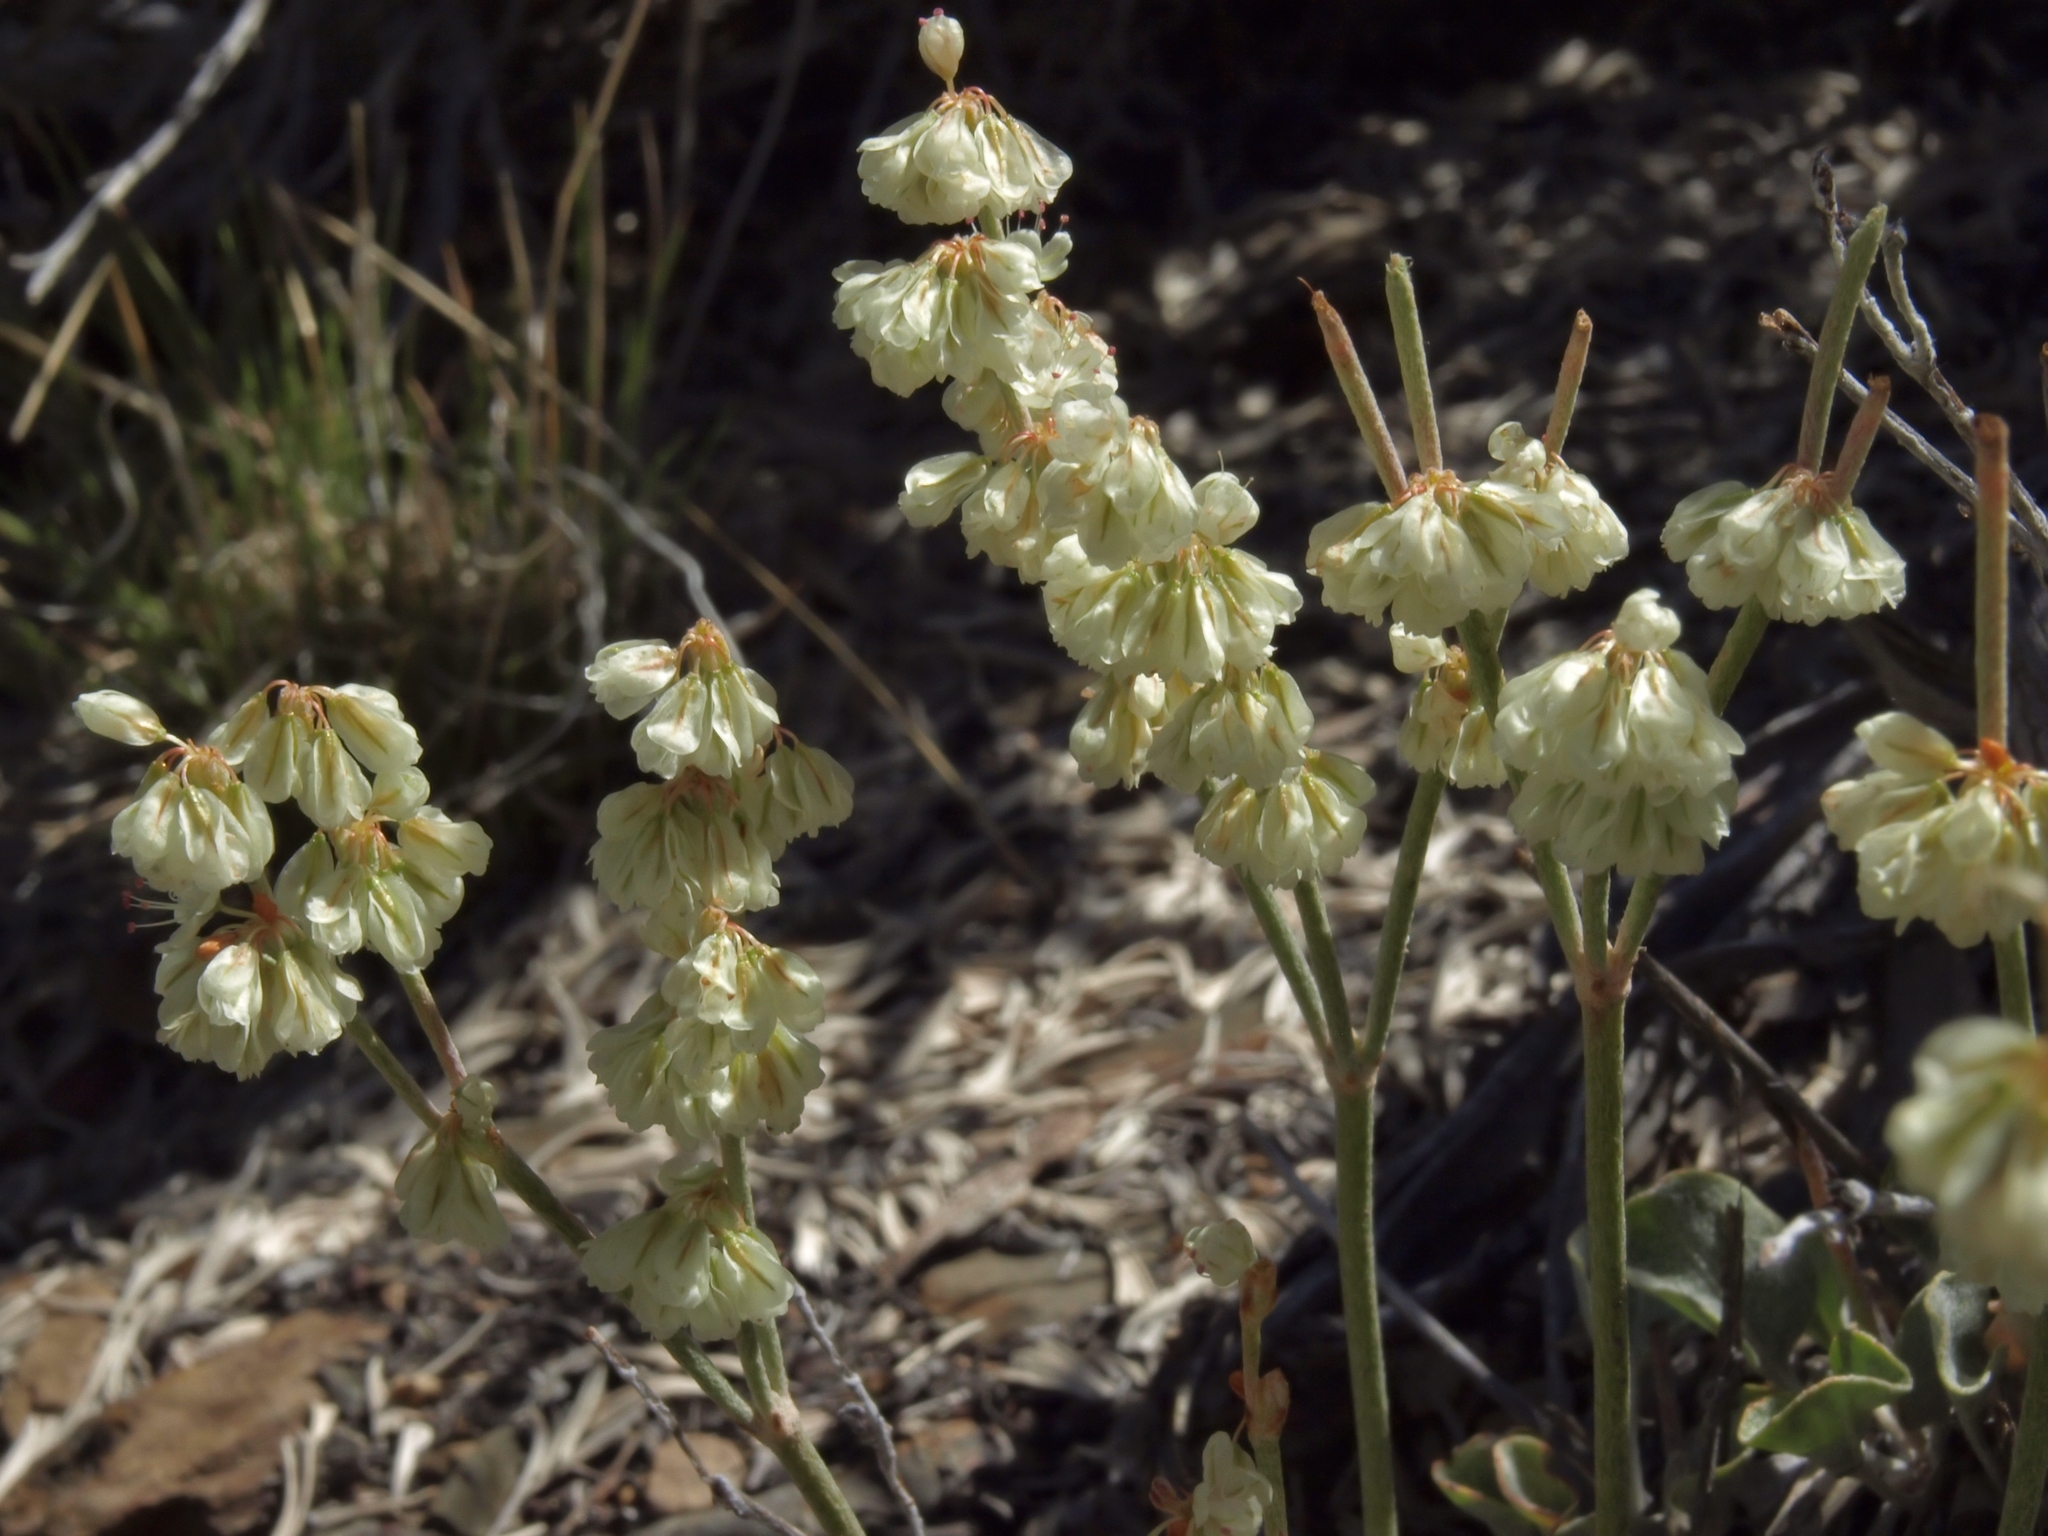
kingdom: Plantae
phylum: Tracheophyta
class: Magnoliopsida
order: Caryophyllales
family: Polygonaceae
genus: Eriogonum
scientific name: Eriogonum rupinum
